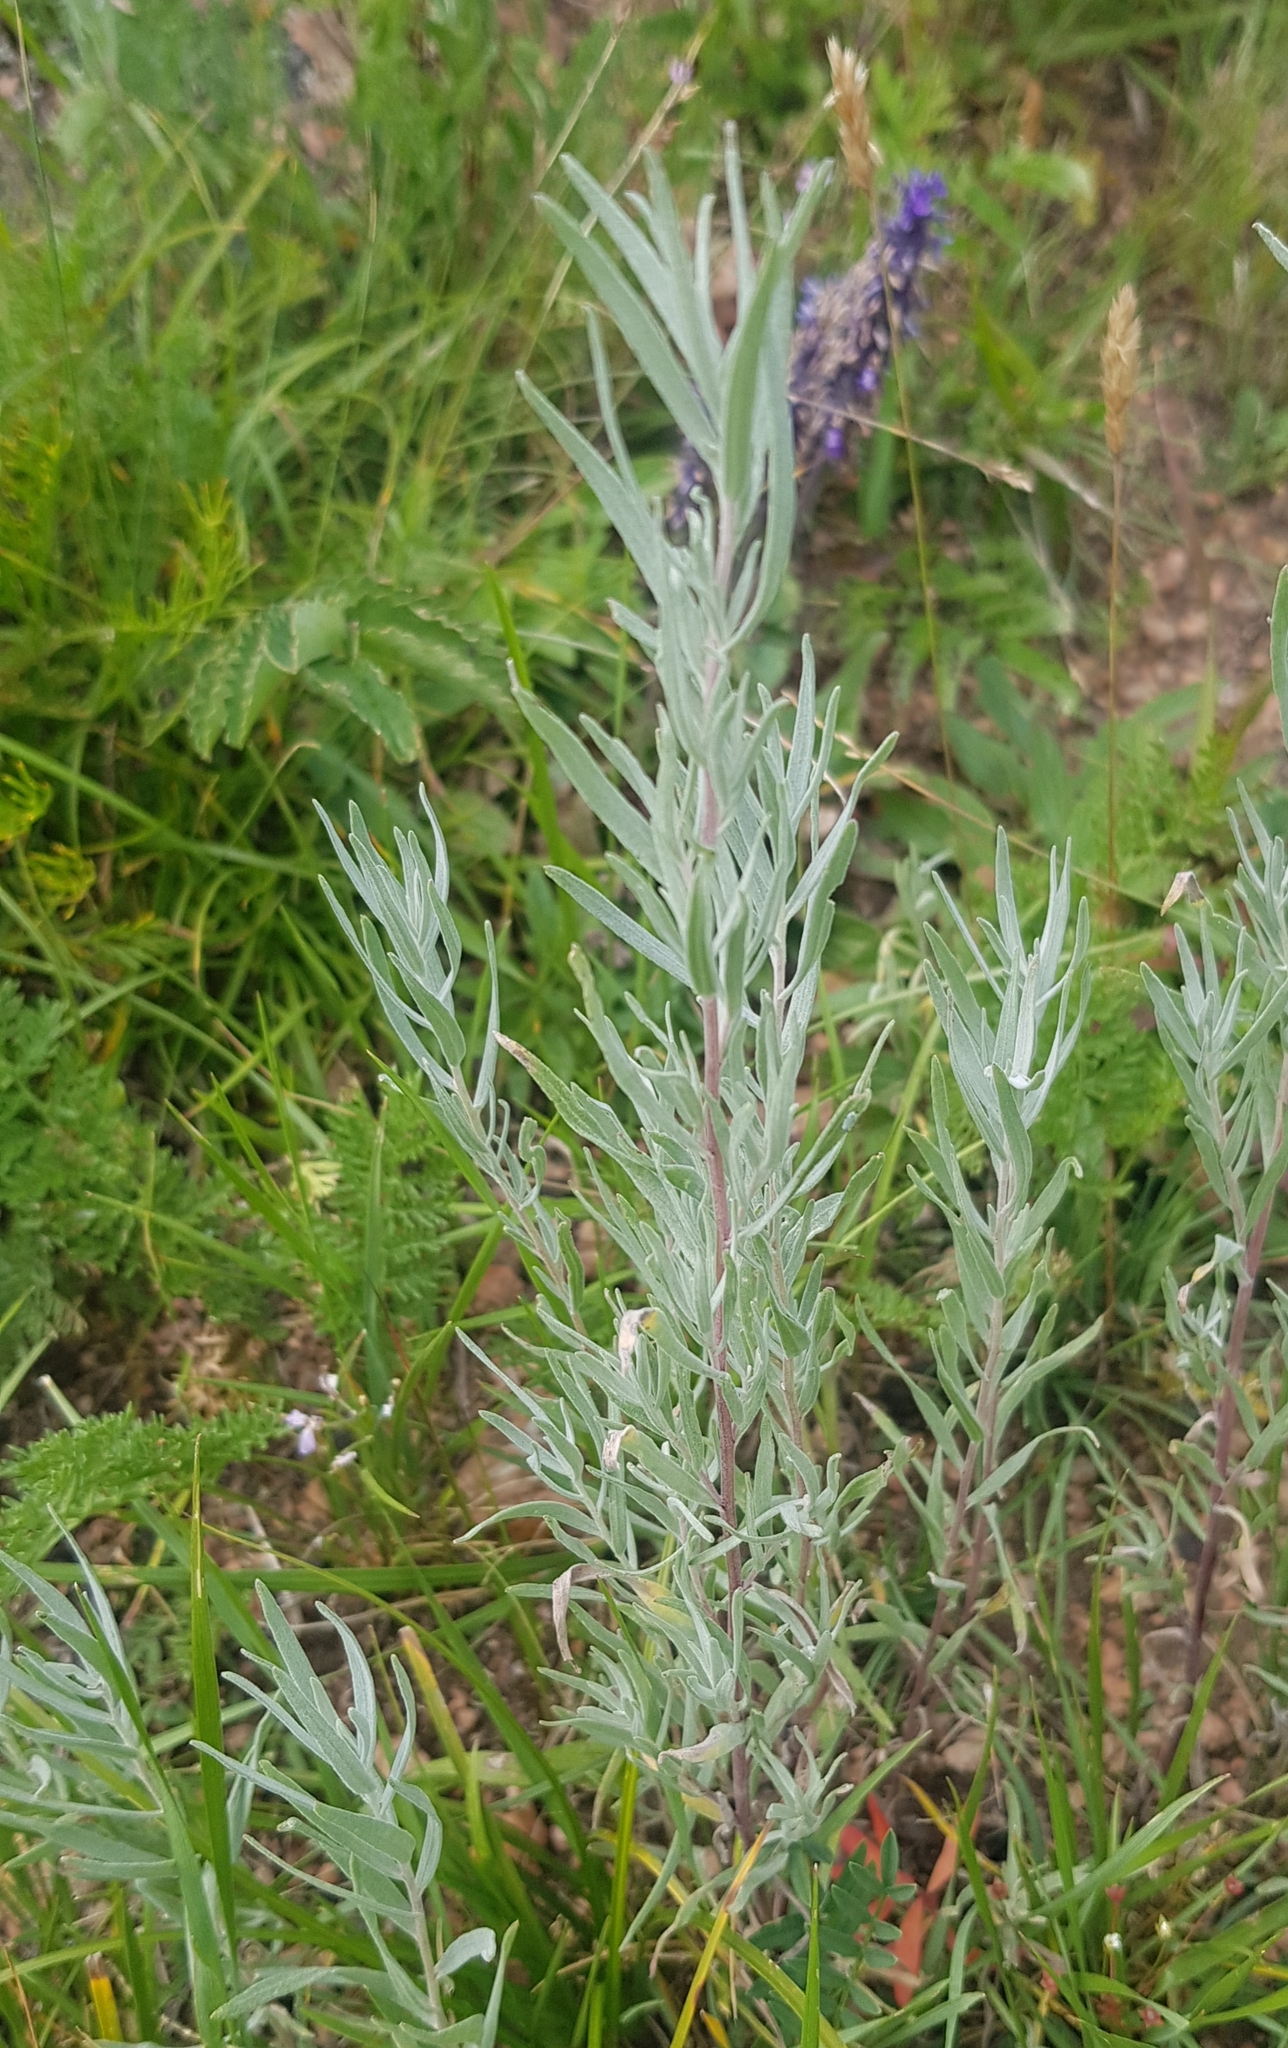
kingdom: Plantae
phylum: Tracheophyta
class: Magnoliopsida
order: Asterales
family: Asteraceae
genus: Artemisia
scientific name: Artemisia glauca
